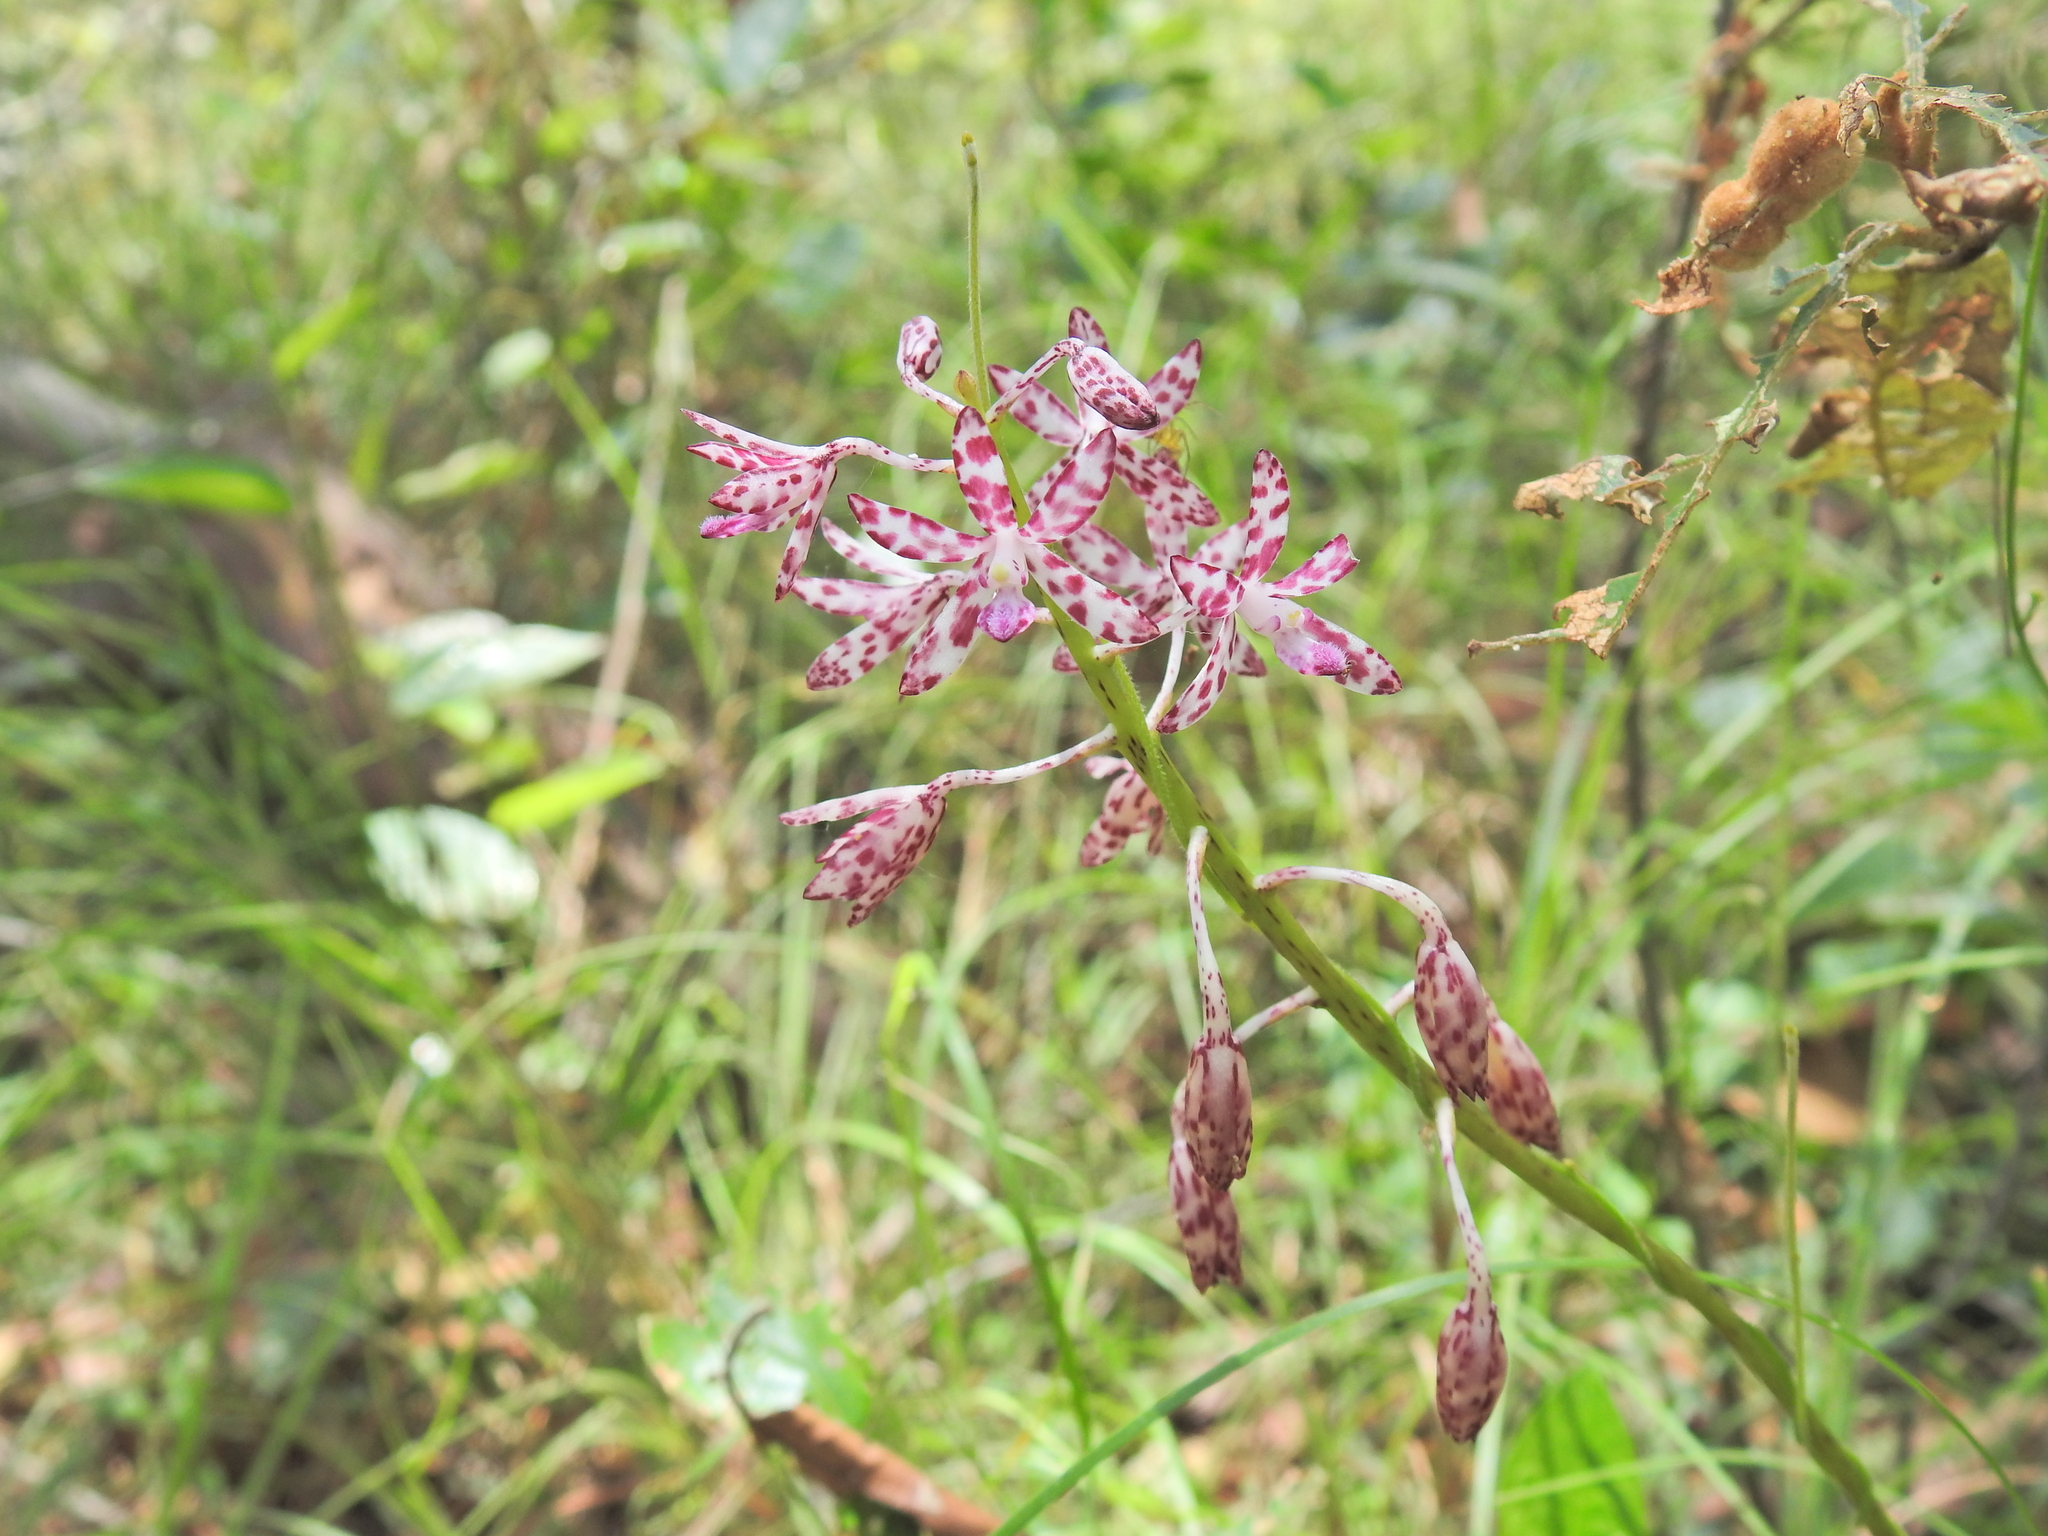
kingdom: Plantae
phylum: Tracheophyta
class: Liliopsida
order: Asparagales
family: Orchidaceae
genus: Dipodium
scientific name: Dipodium variegatum
